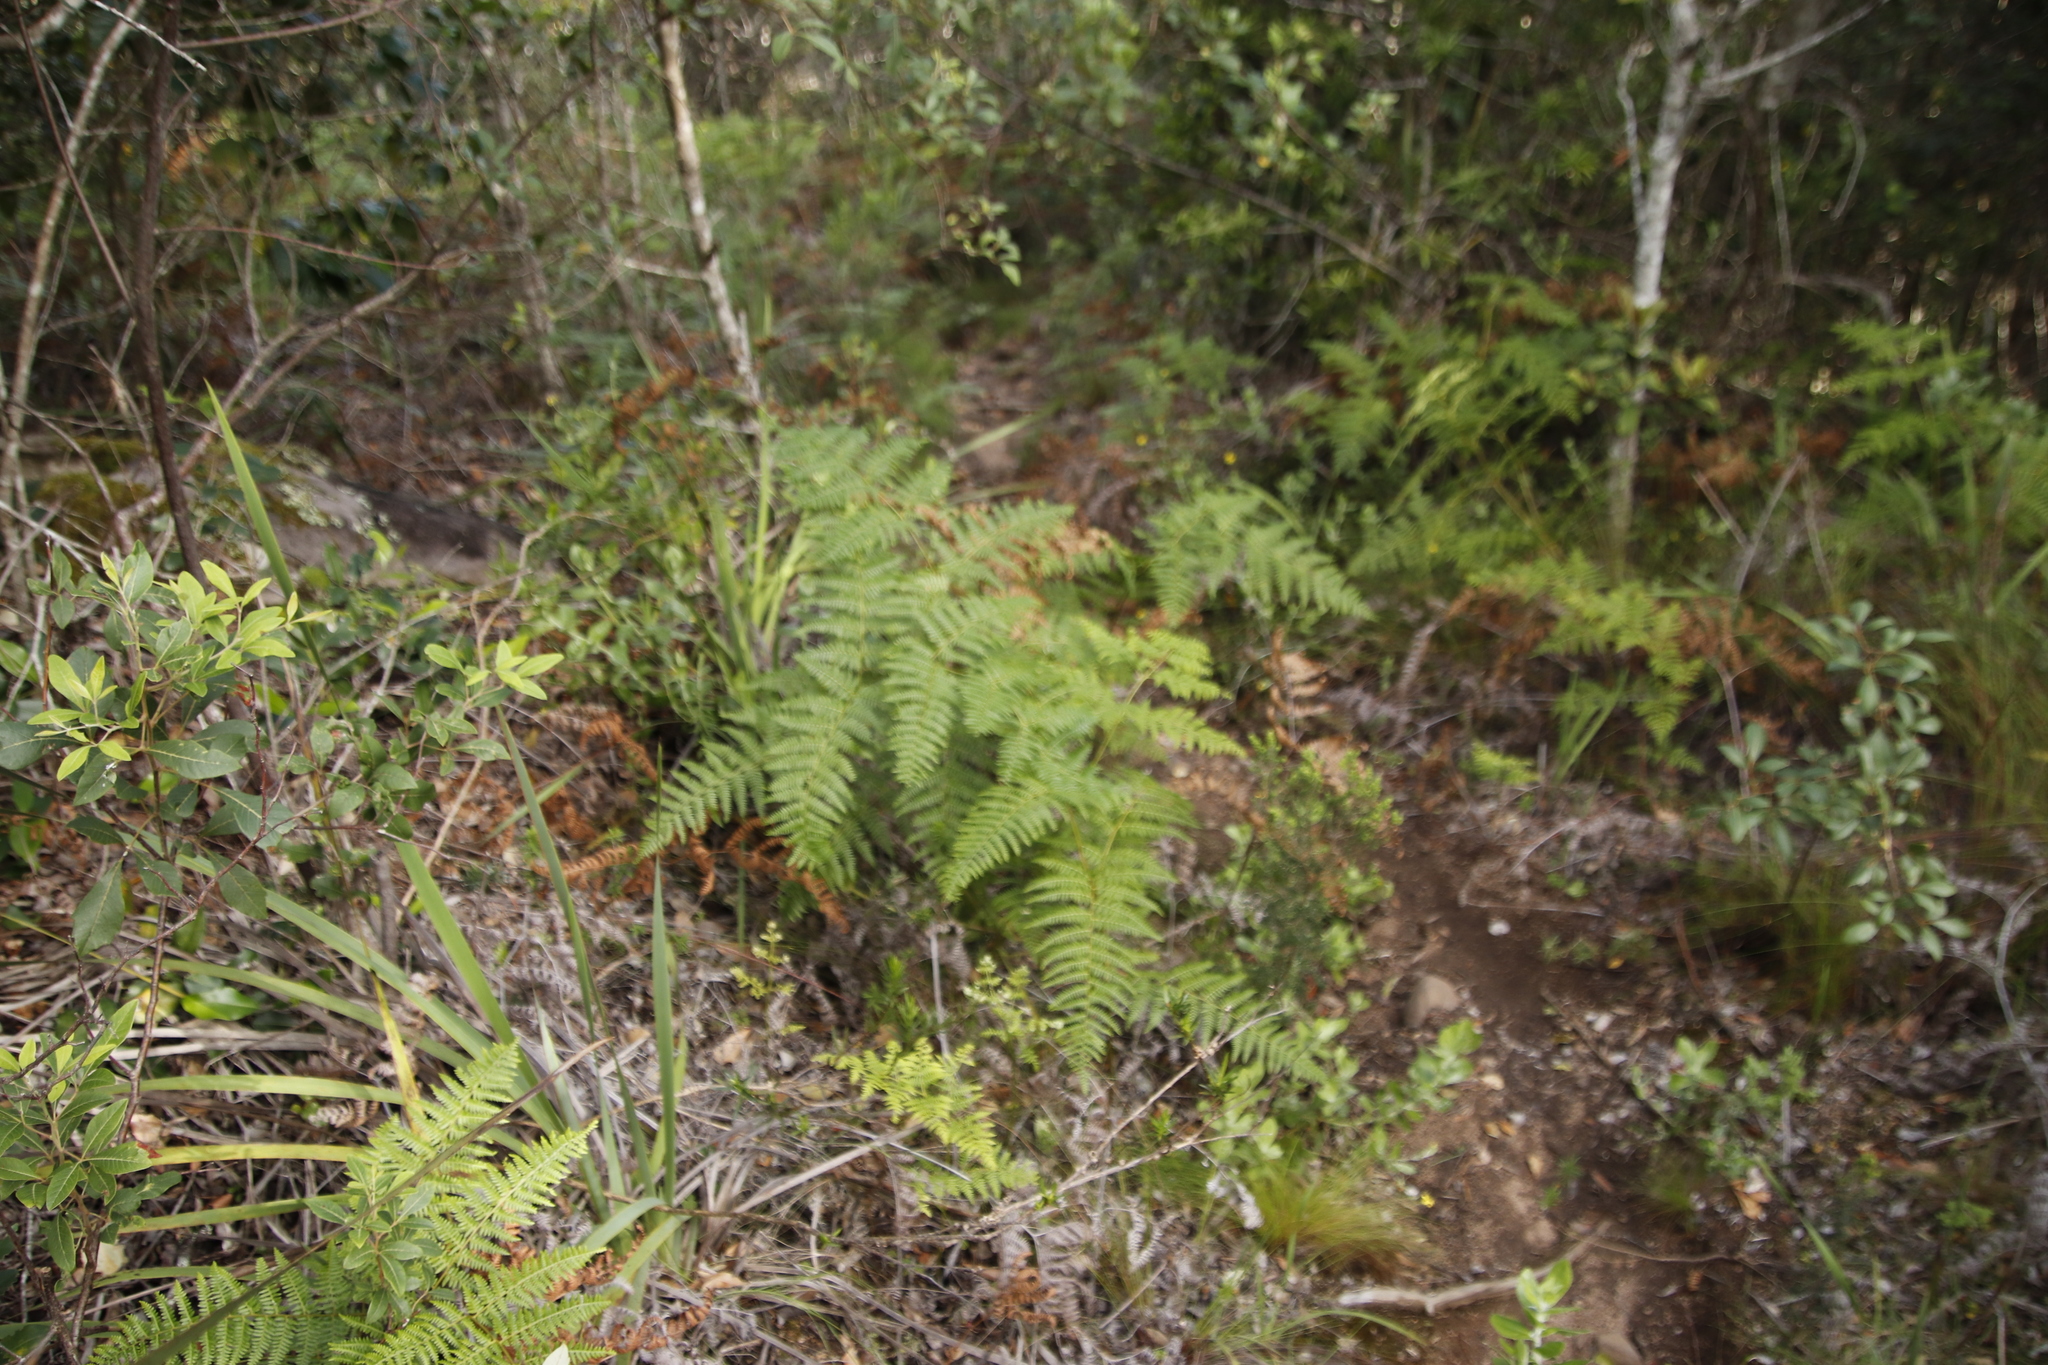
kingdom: Plantae
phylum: Tracheophyta
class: Polypodiopsida
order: Polypodiales
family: Dennstaedtiaceae
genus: Pteridium
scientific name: Pteridium aquilinum
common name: Bracken
